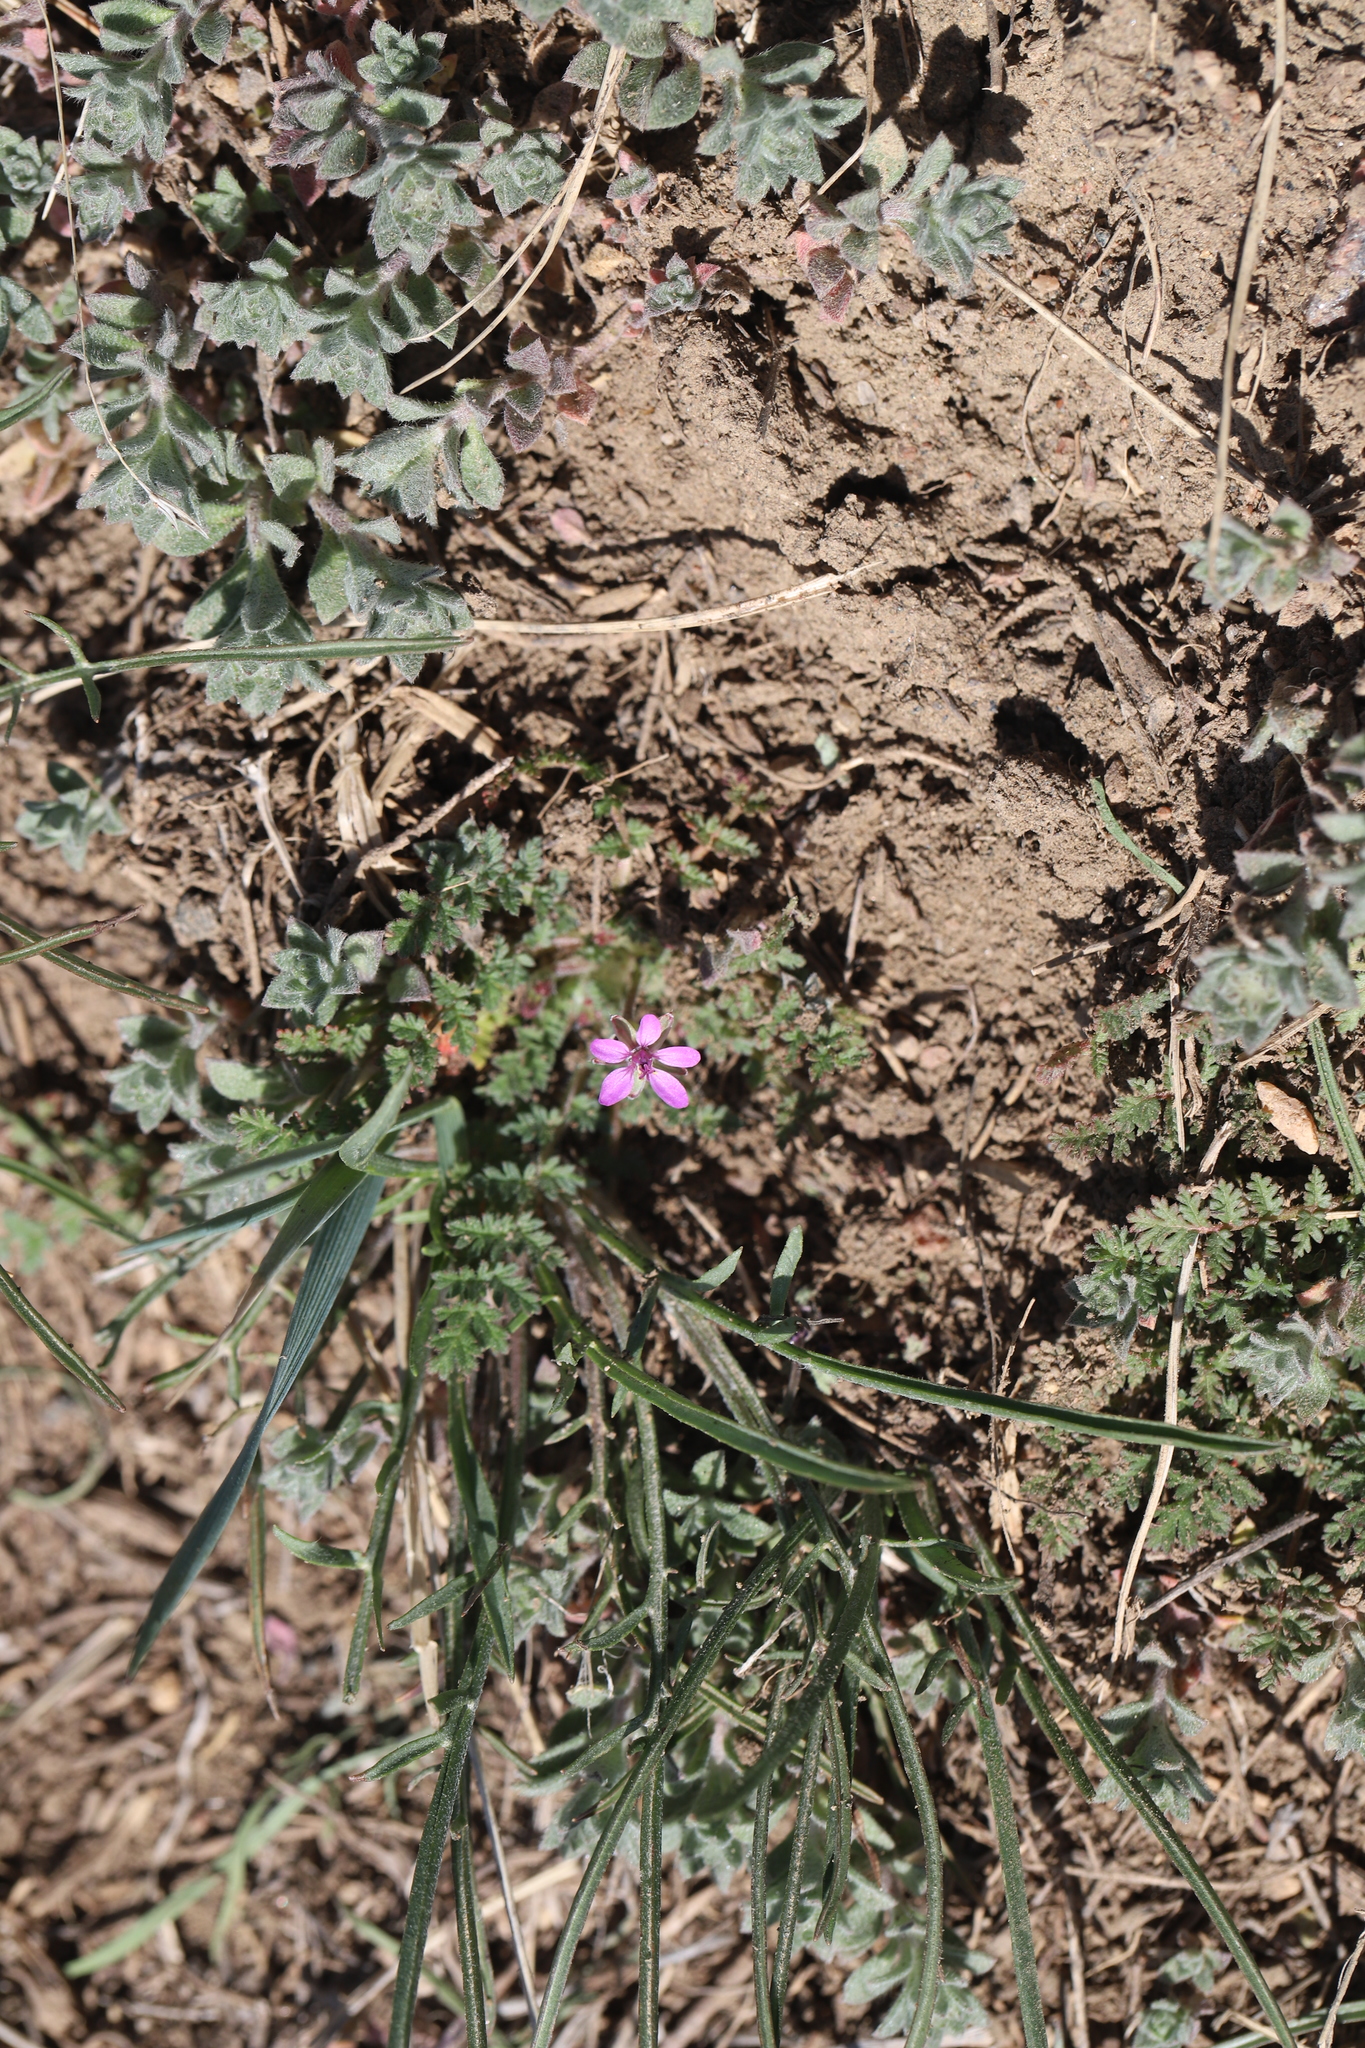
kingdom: Plantae
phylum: Tracheophyta
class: Magnoliopsida
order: Geraniales
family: Geraniaceae
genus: Erodium
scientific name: Erodium cicutarium
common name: Common stork's-bill
